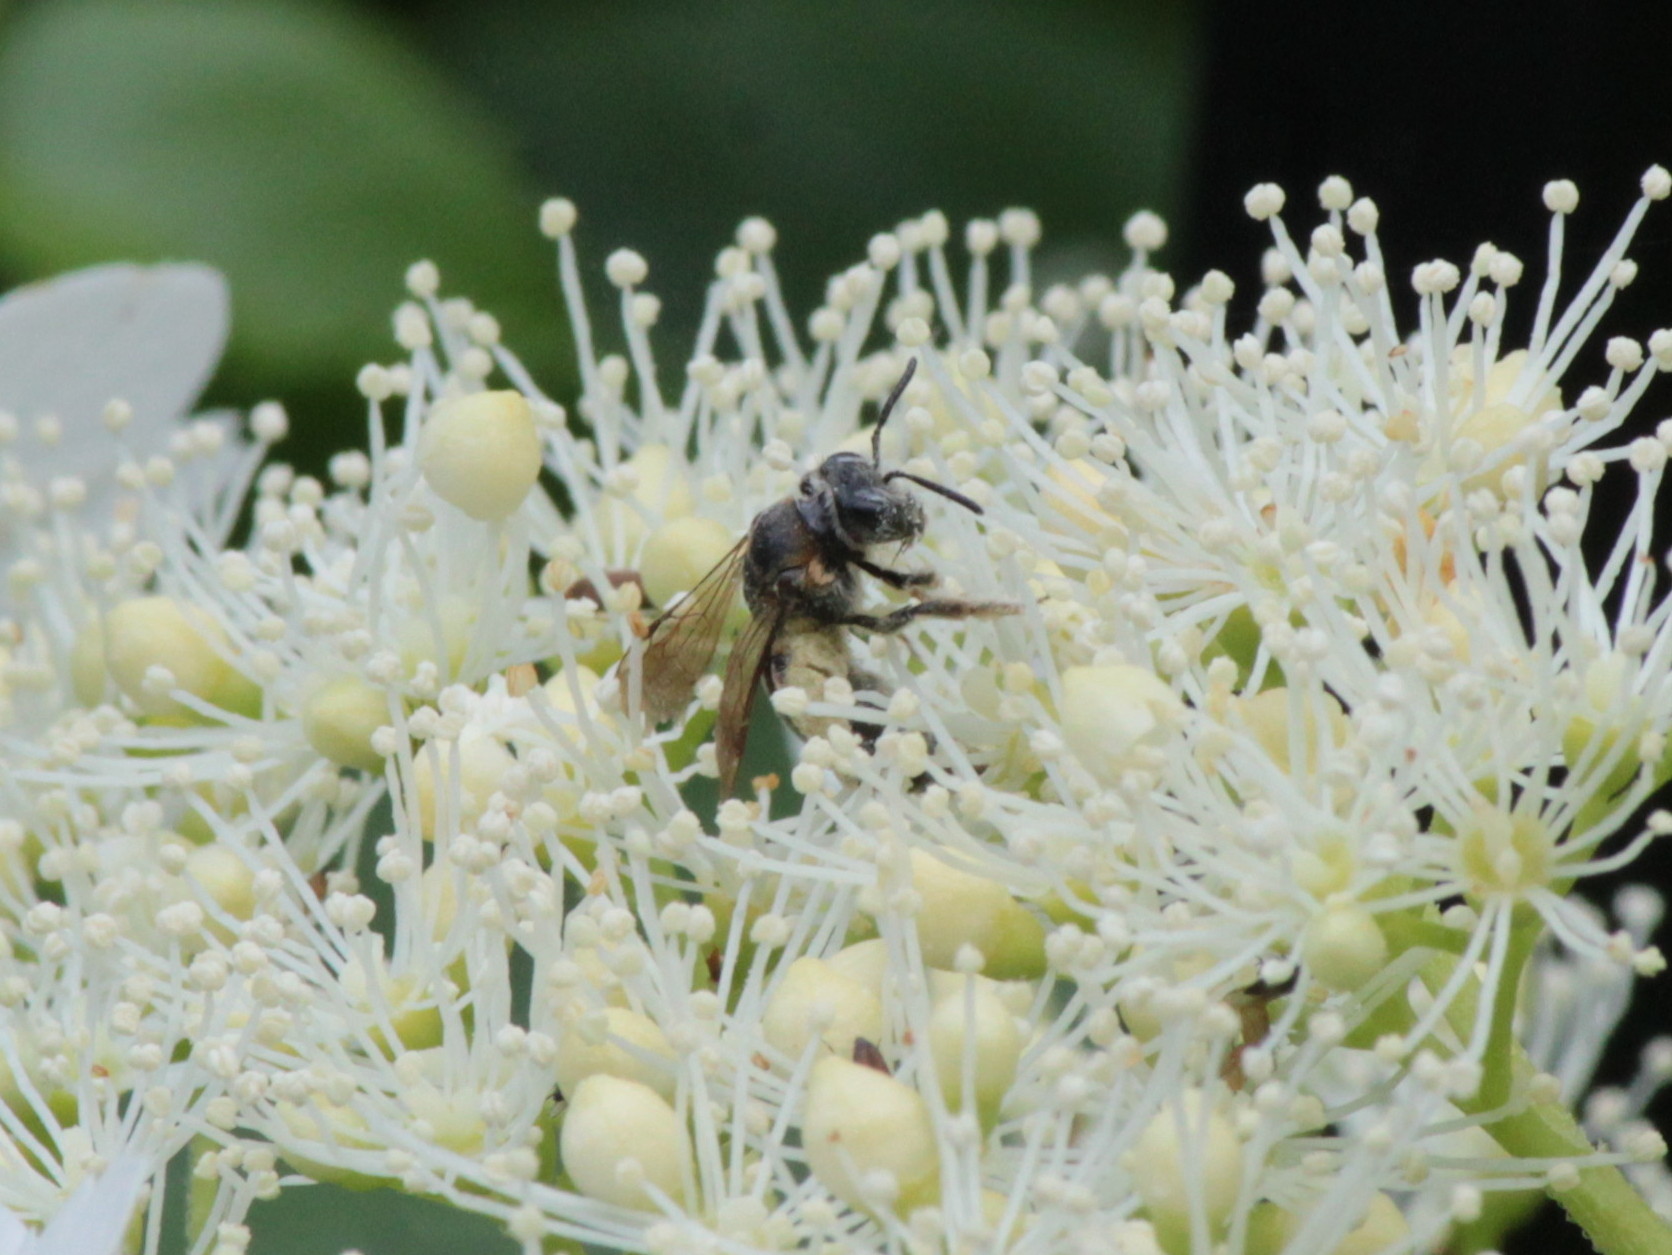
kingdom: Animalia
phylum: Arthropoda
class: Insecta
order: Hymenoptera
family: Andrenidae
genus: Andrena
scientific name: Andrena alleghaniensis
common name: Allegheny mining bee
